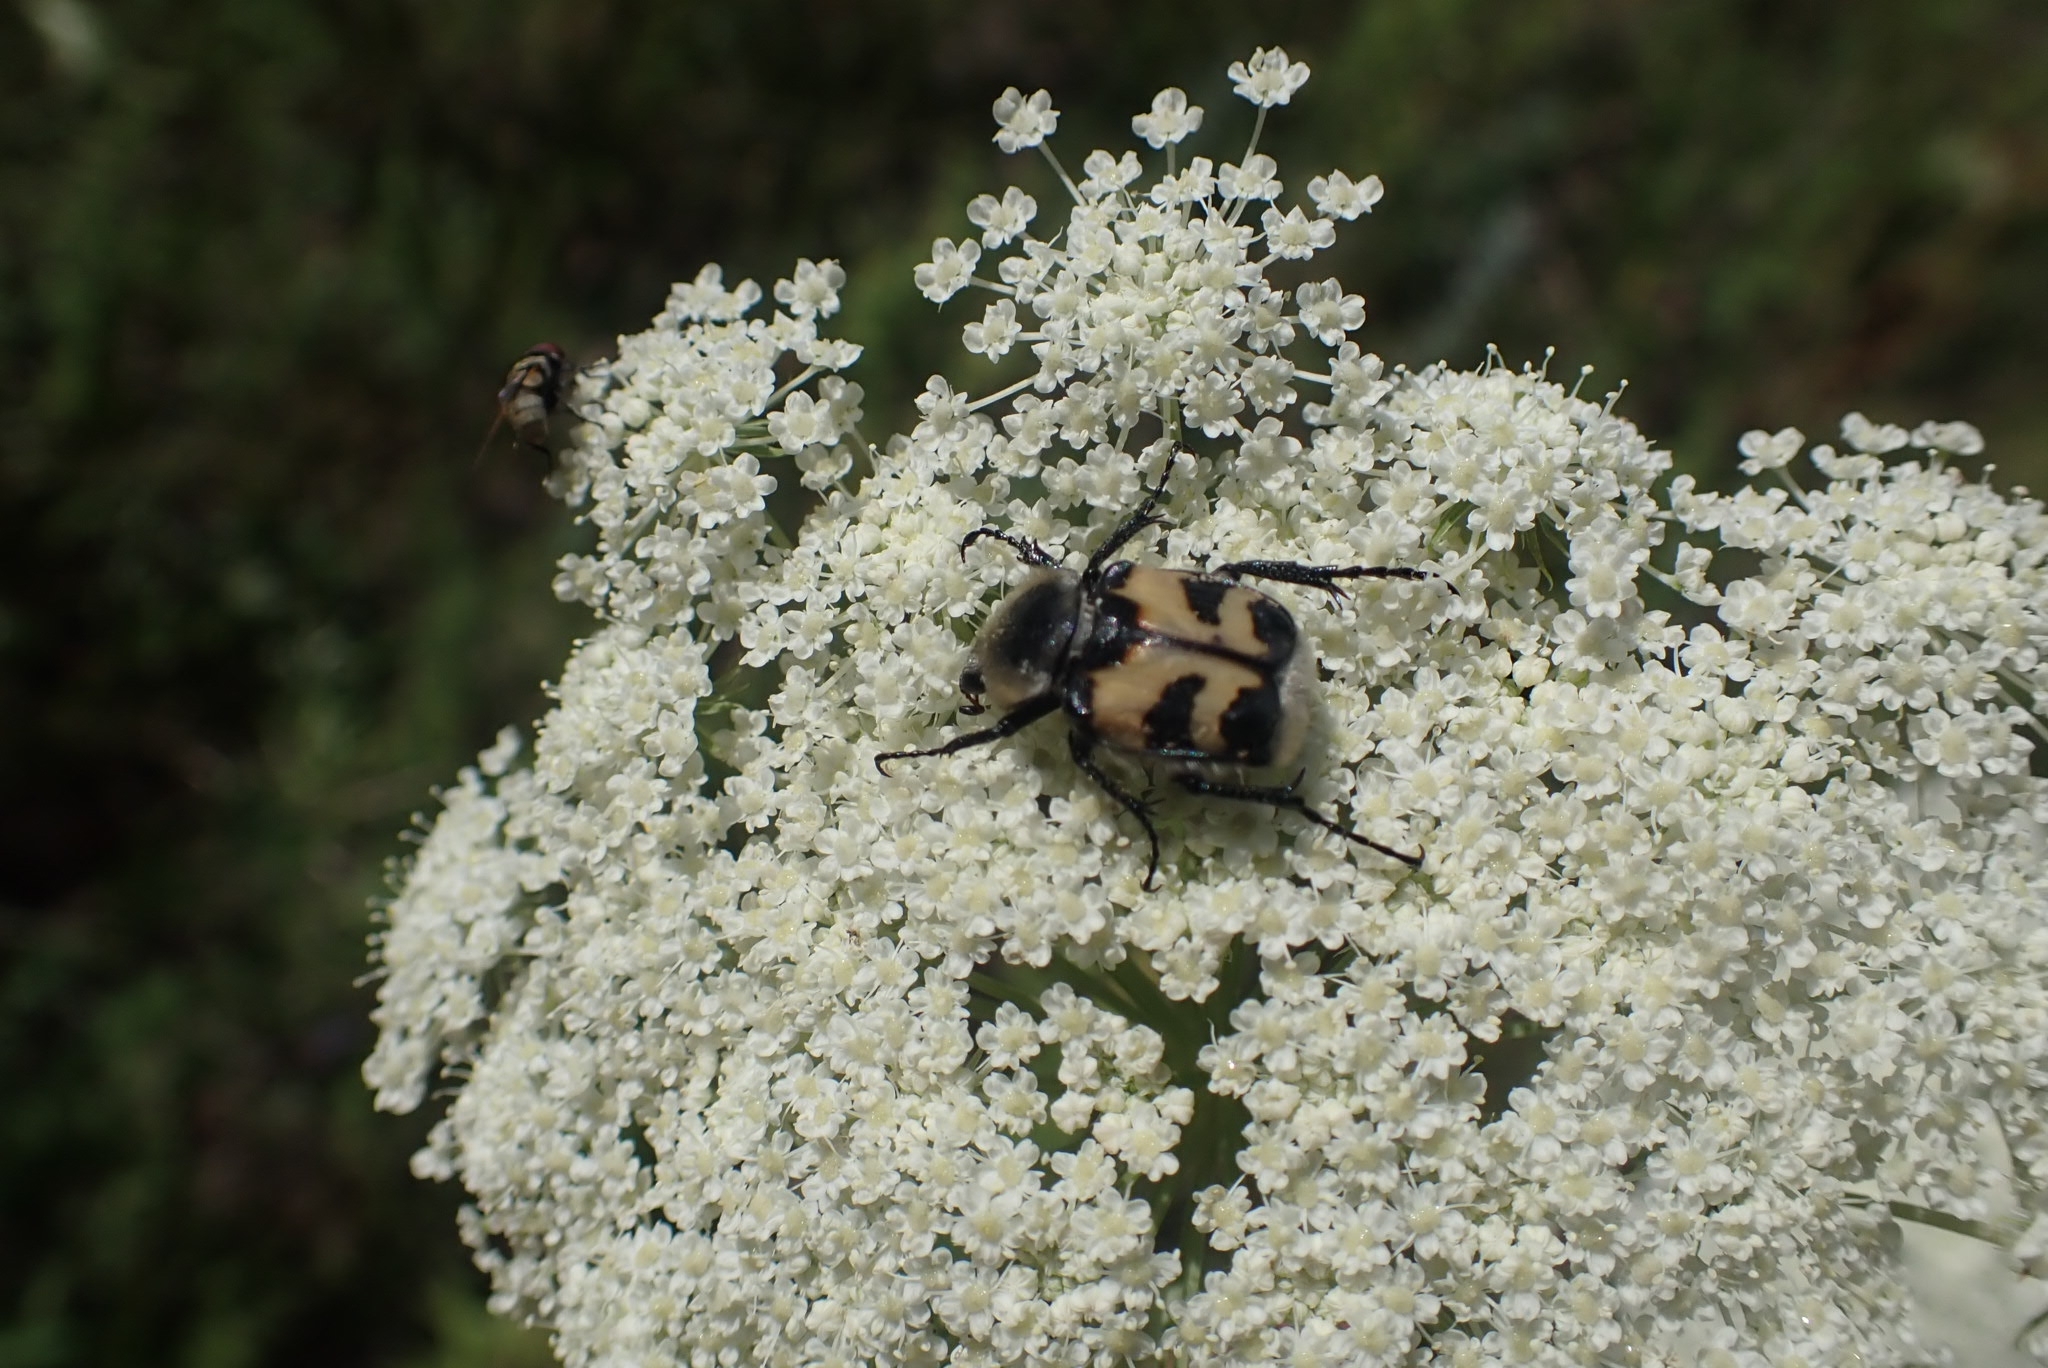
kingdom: Animalia
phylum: Arthropoda
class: Insecta
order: Coleoptera
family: Scarabaeidae
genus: Trichius
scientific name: Trichius fasciatus
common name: Bee beetle
